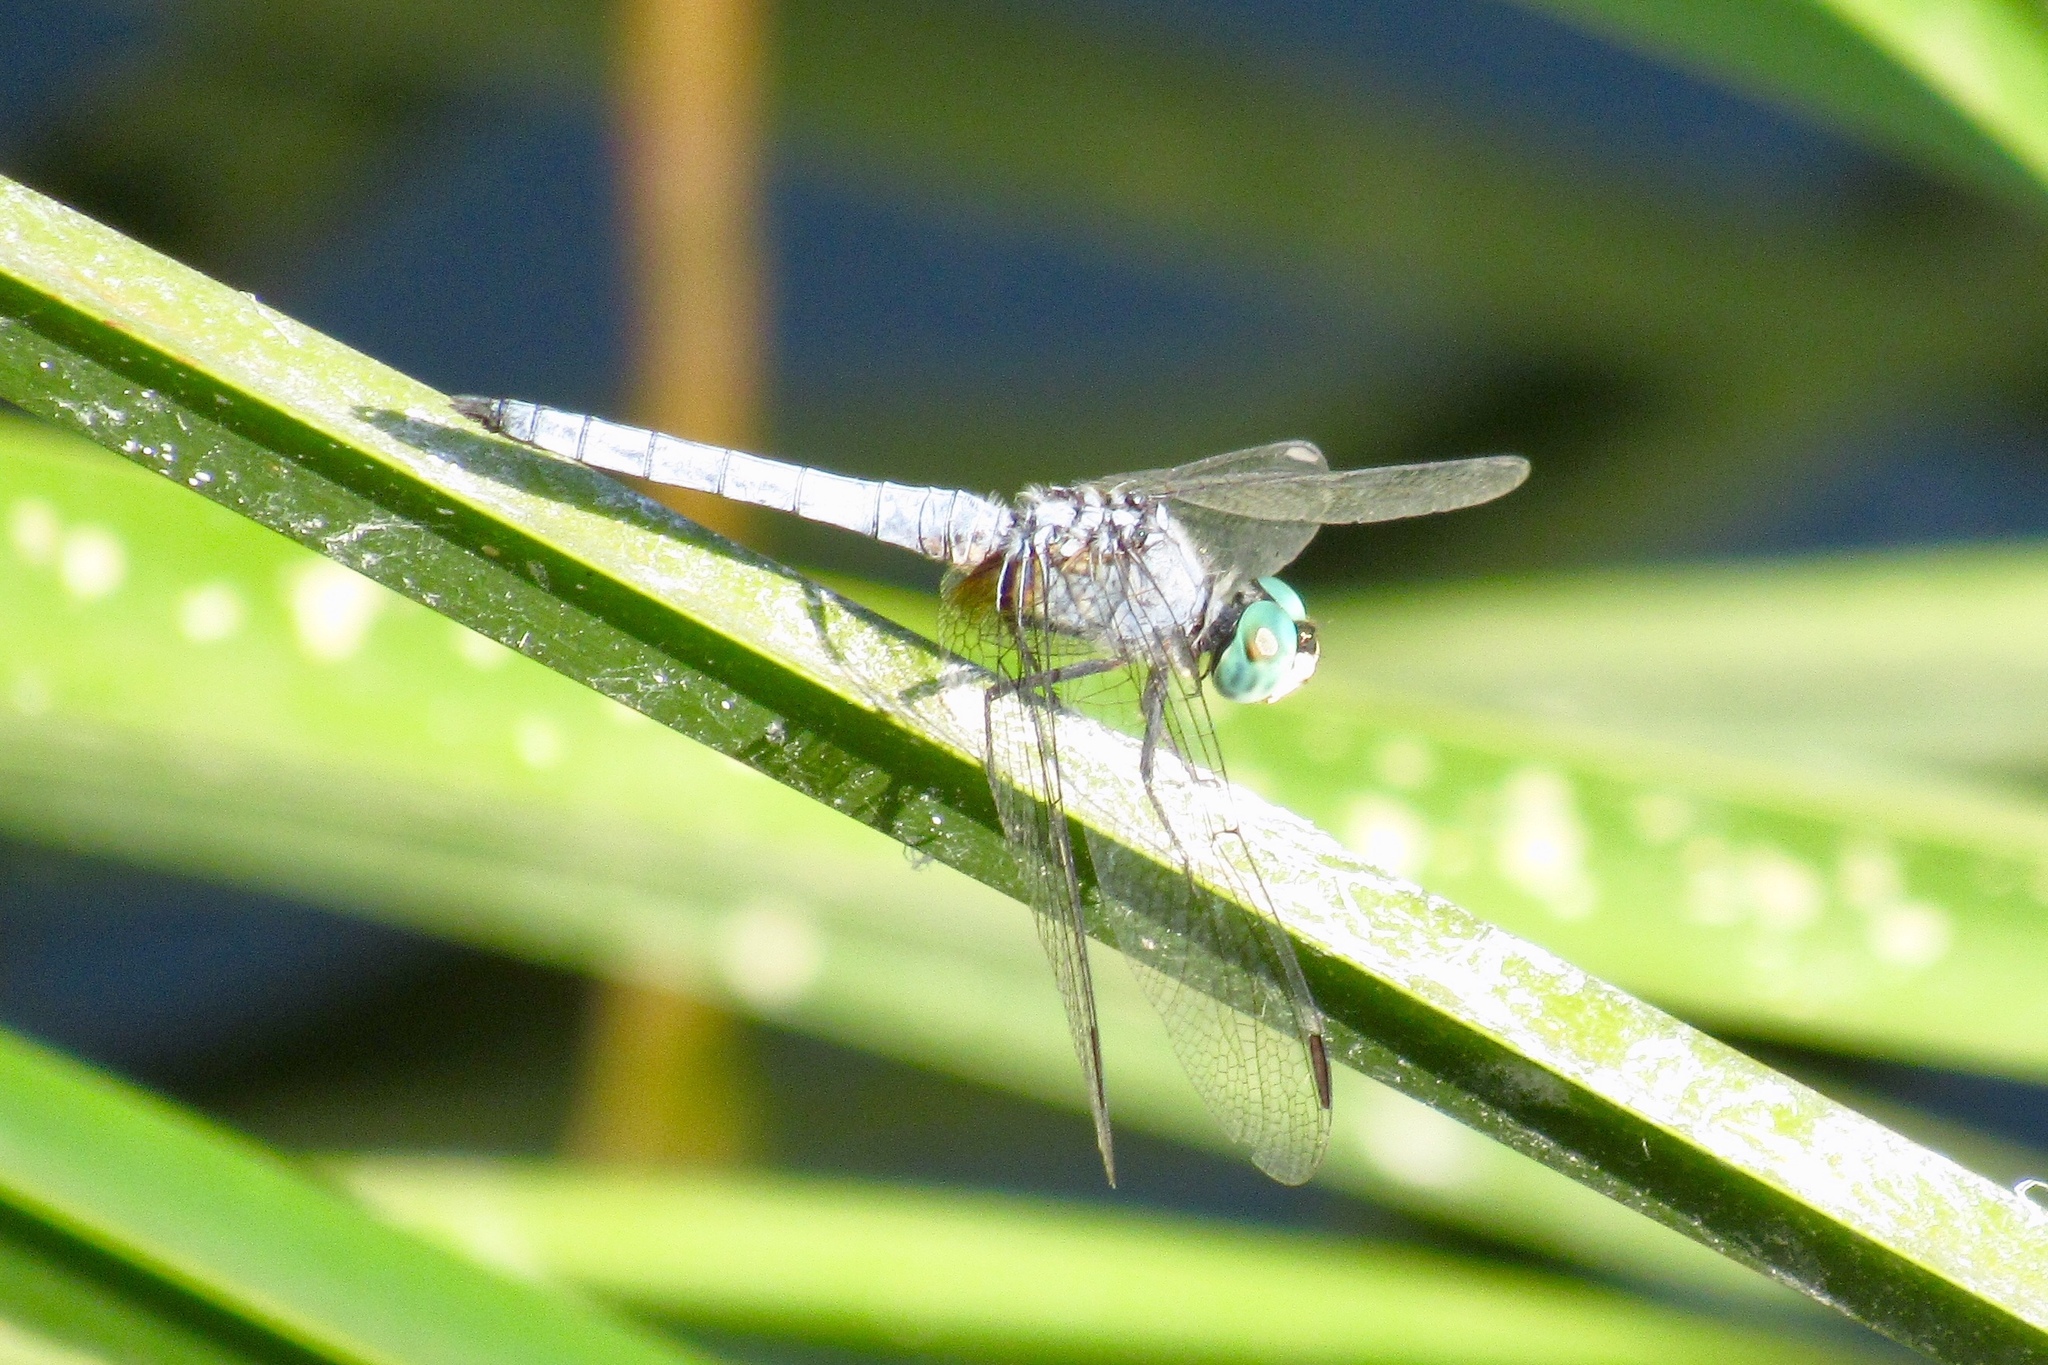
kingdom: Animalia
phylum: Arthropoda
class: Insecta
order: Odonata
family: Libellulidae
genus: Pachydiplax
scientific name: Pachydiplax longipennis
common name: Blue dasher
